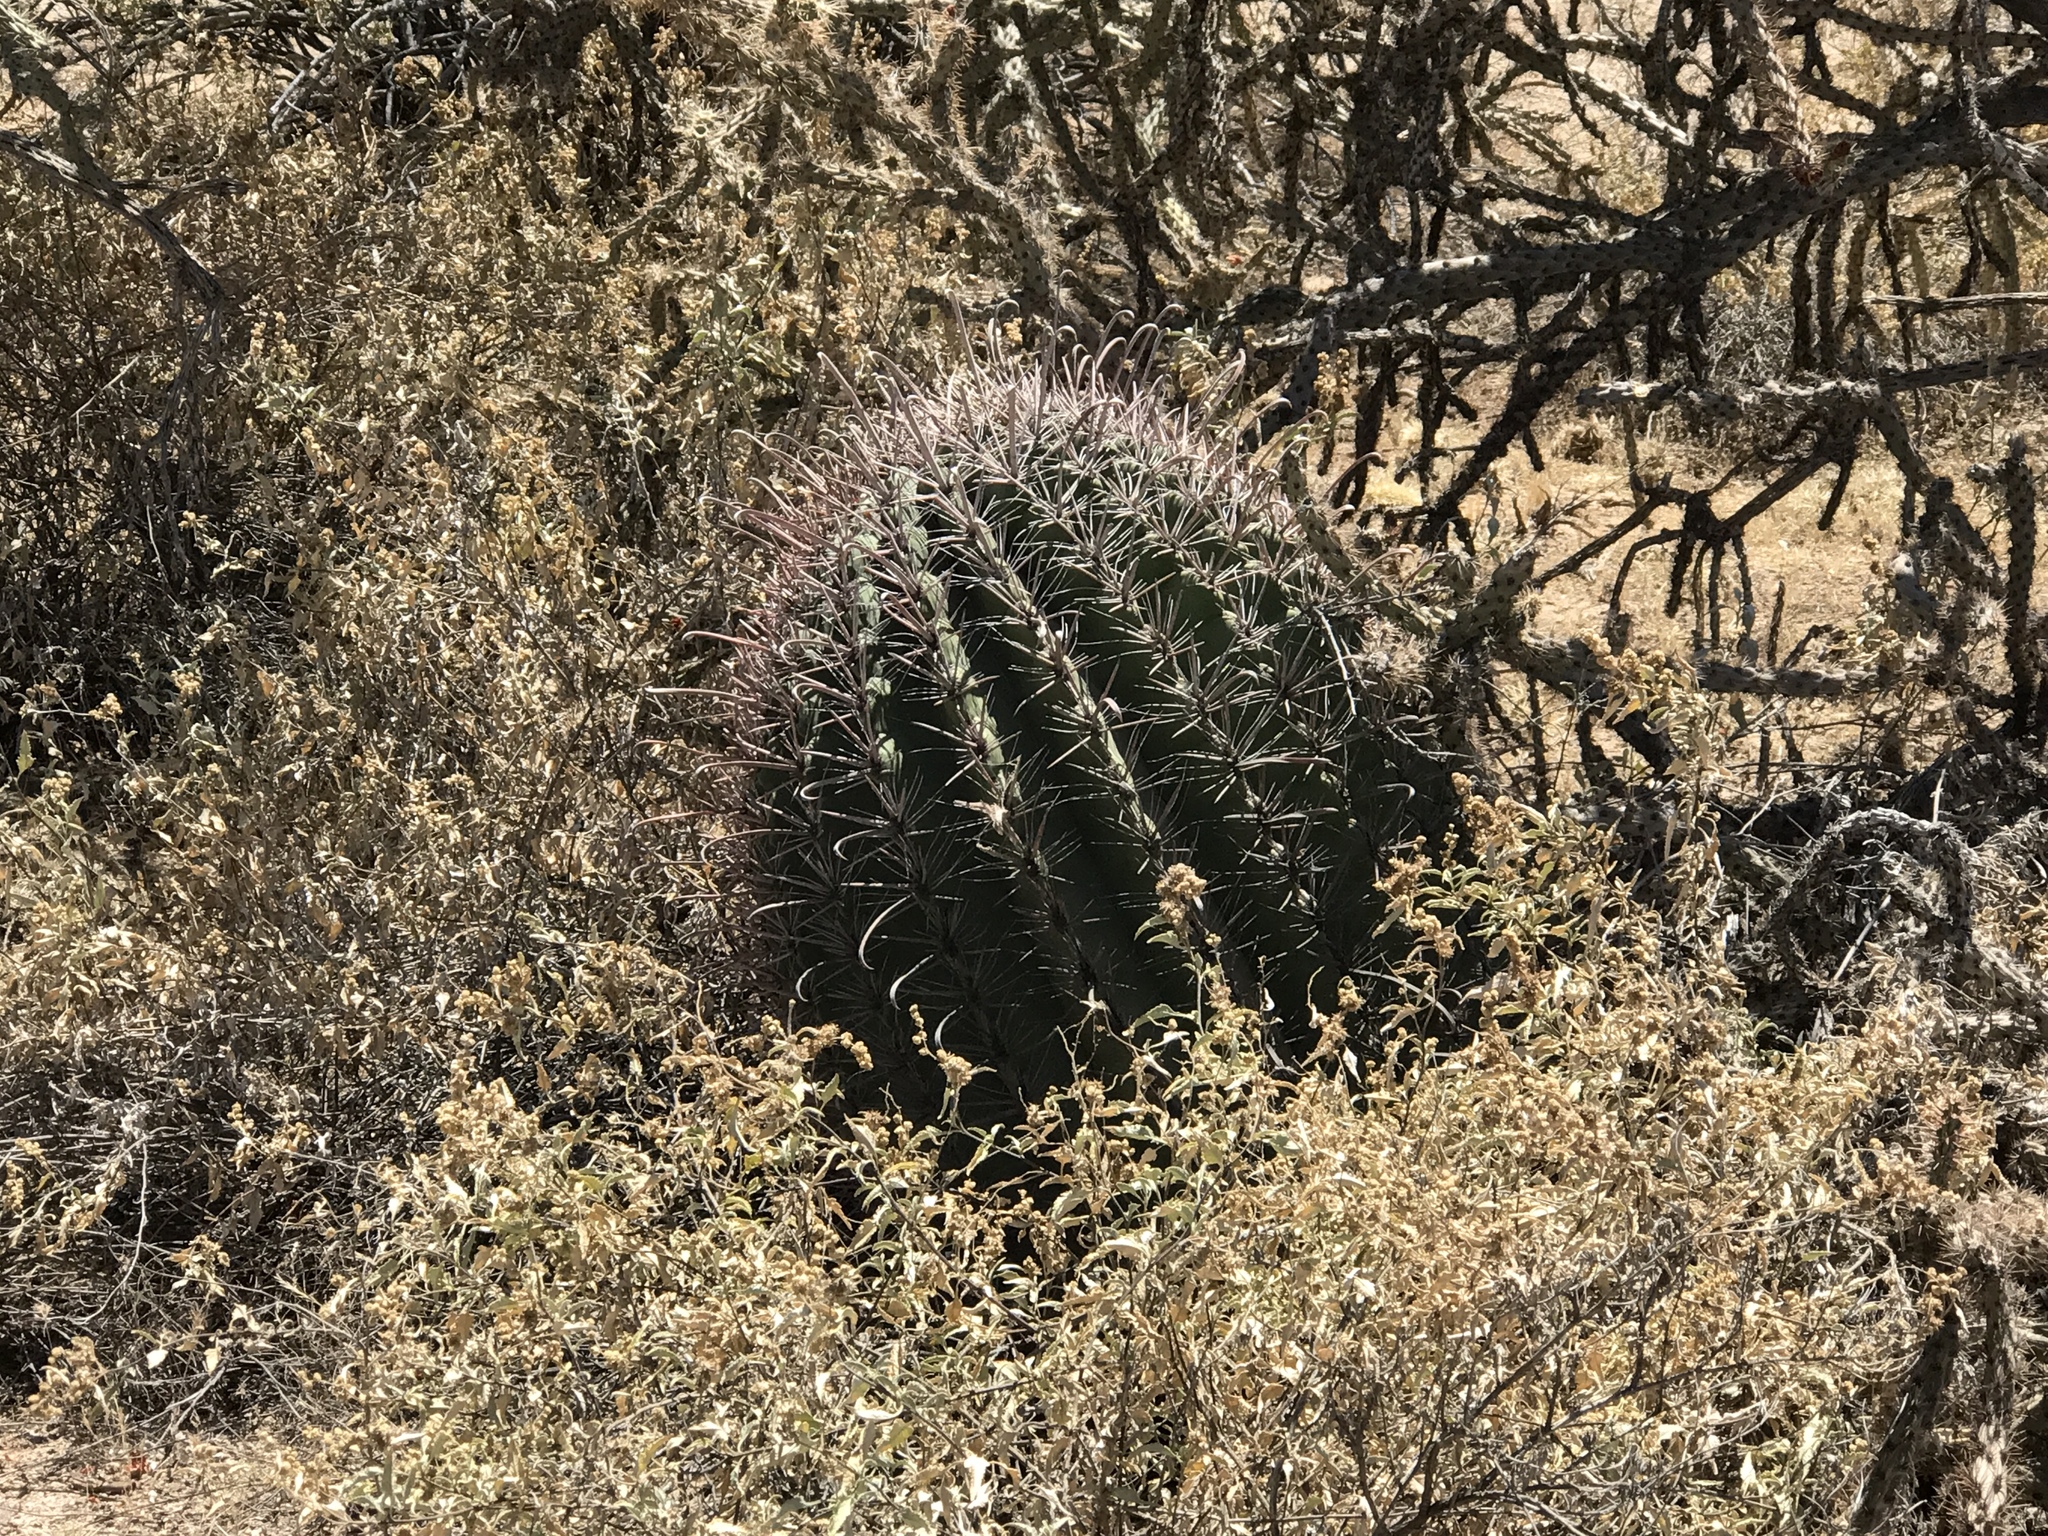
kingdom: Plantae
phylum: Tracheophyta
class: Magnoliopsida
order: Caryophyllales
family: Cactaceae
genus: Ferocactus
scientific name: Ferocactus wislizeni
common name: Candy barrel cactus
